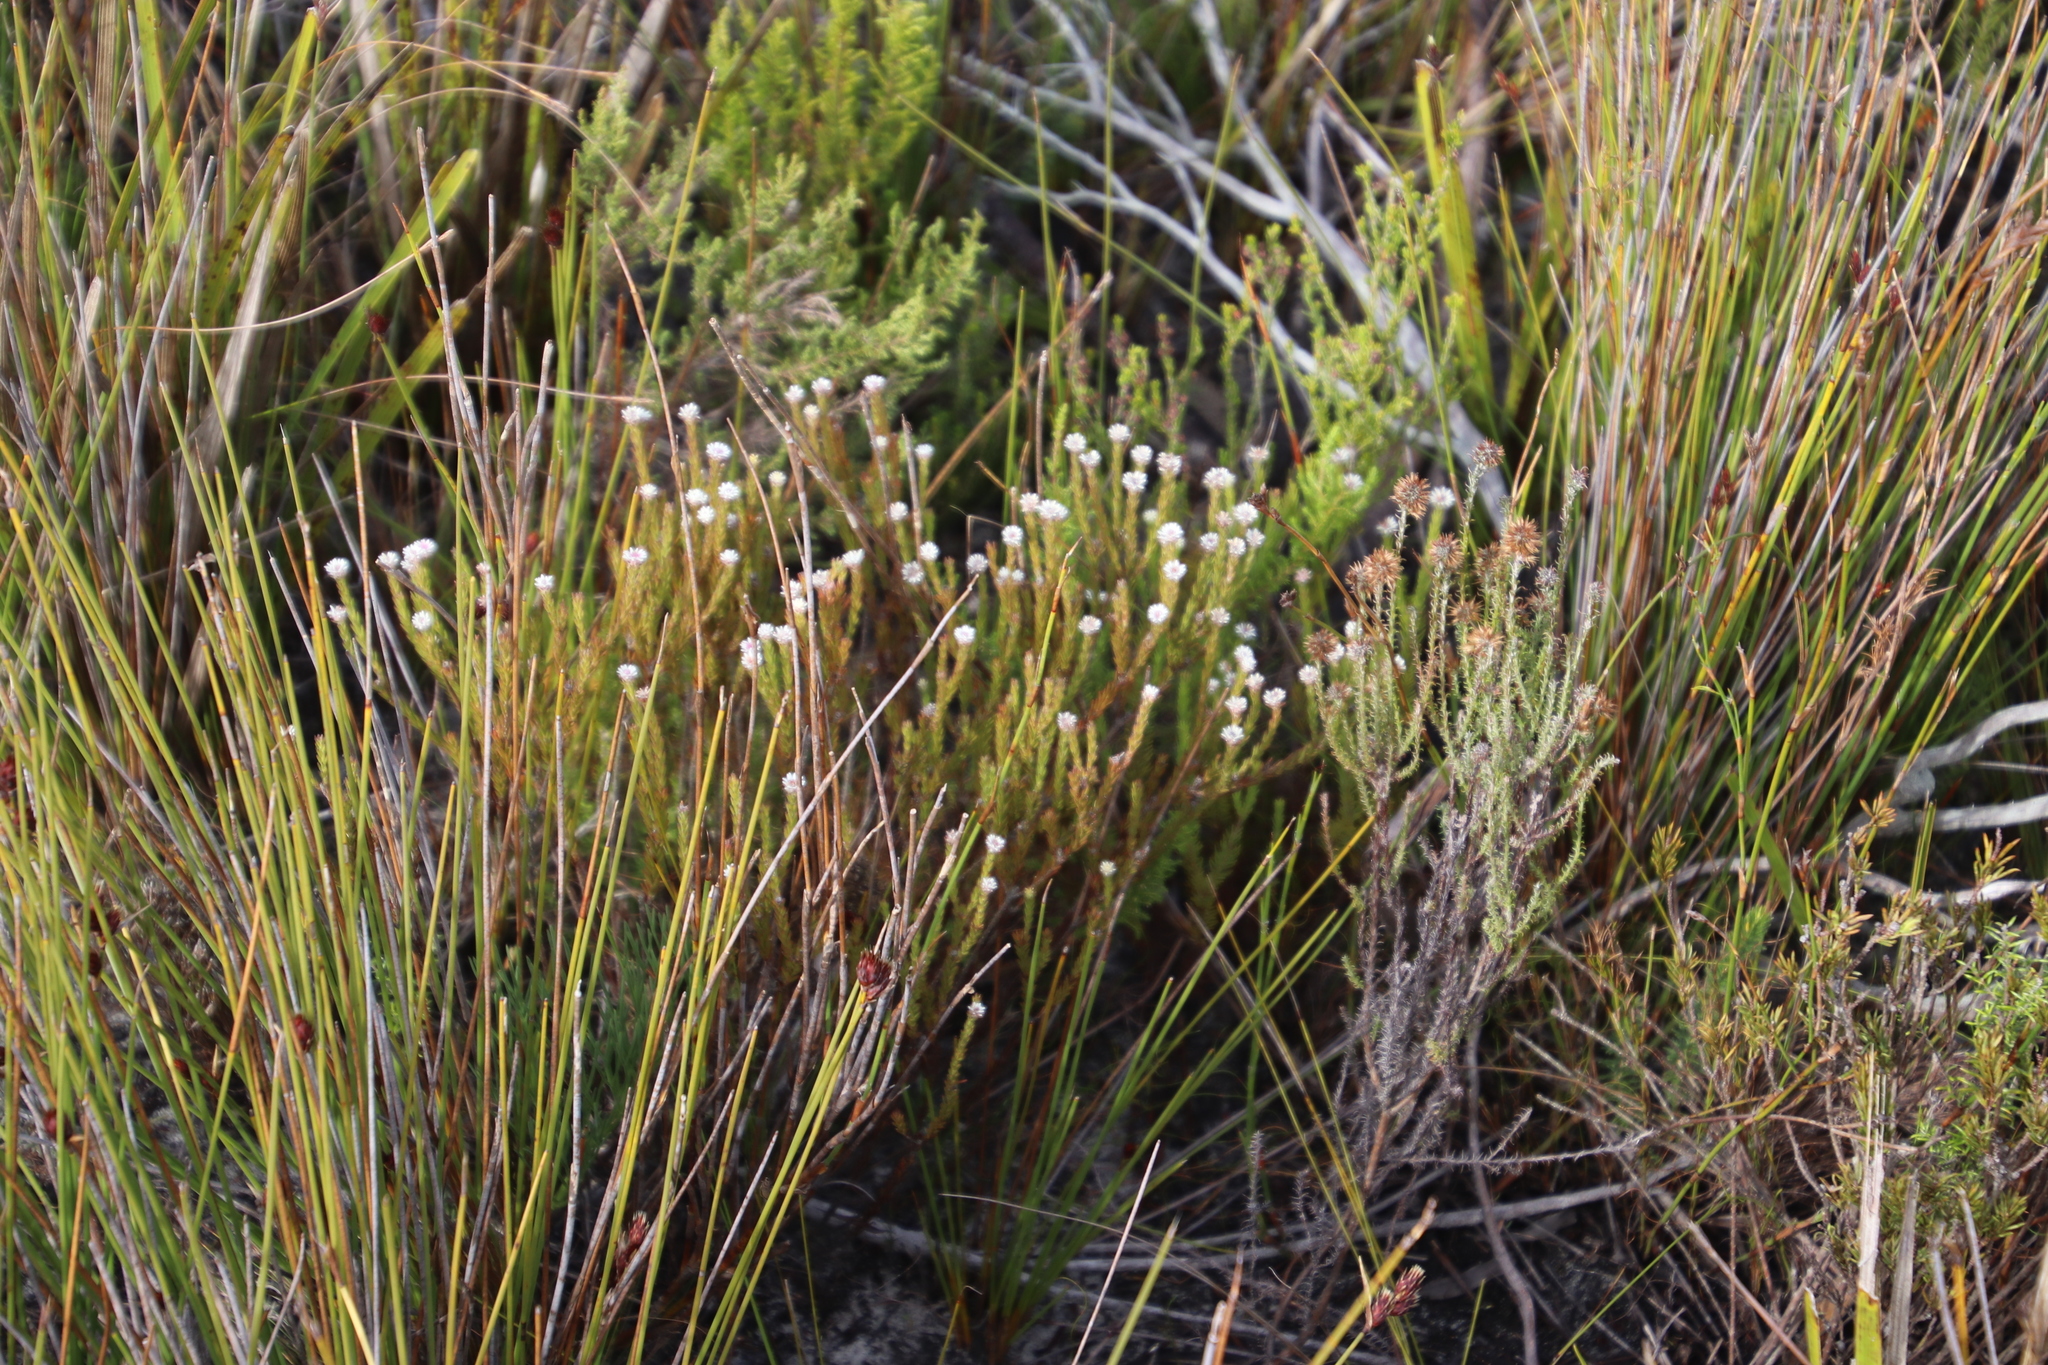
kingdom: Plantae
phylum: Tracheophyta
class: Magnoliopsida
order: Bruniales
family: Bruniaceae
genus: Staavia
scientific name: Staavia radiata
